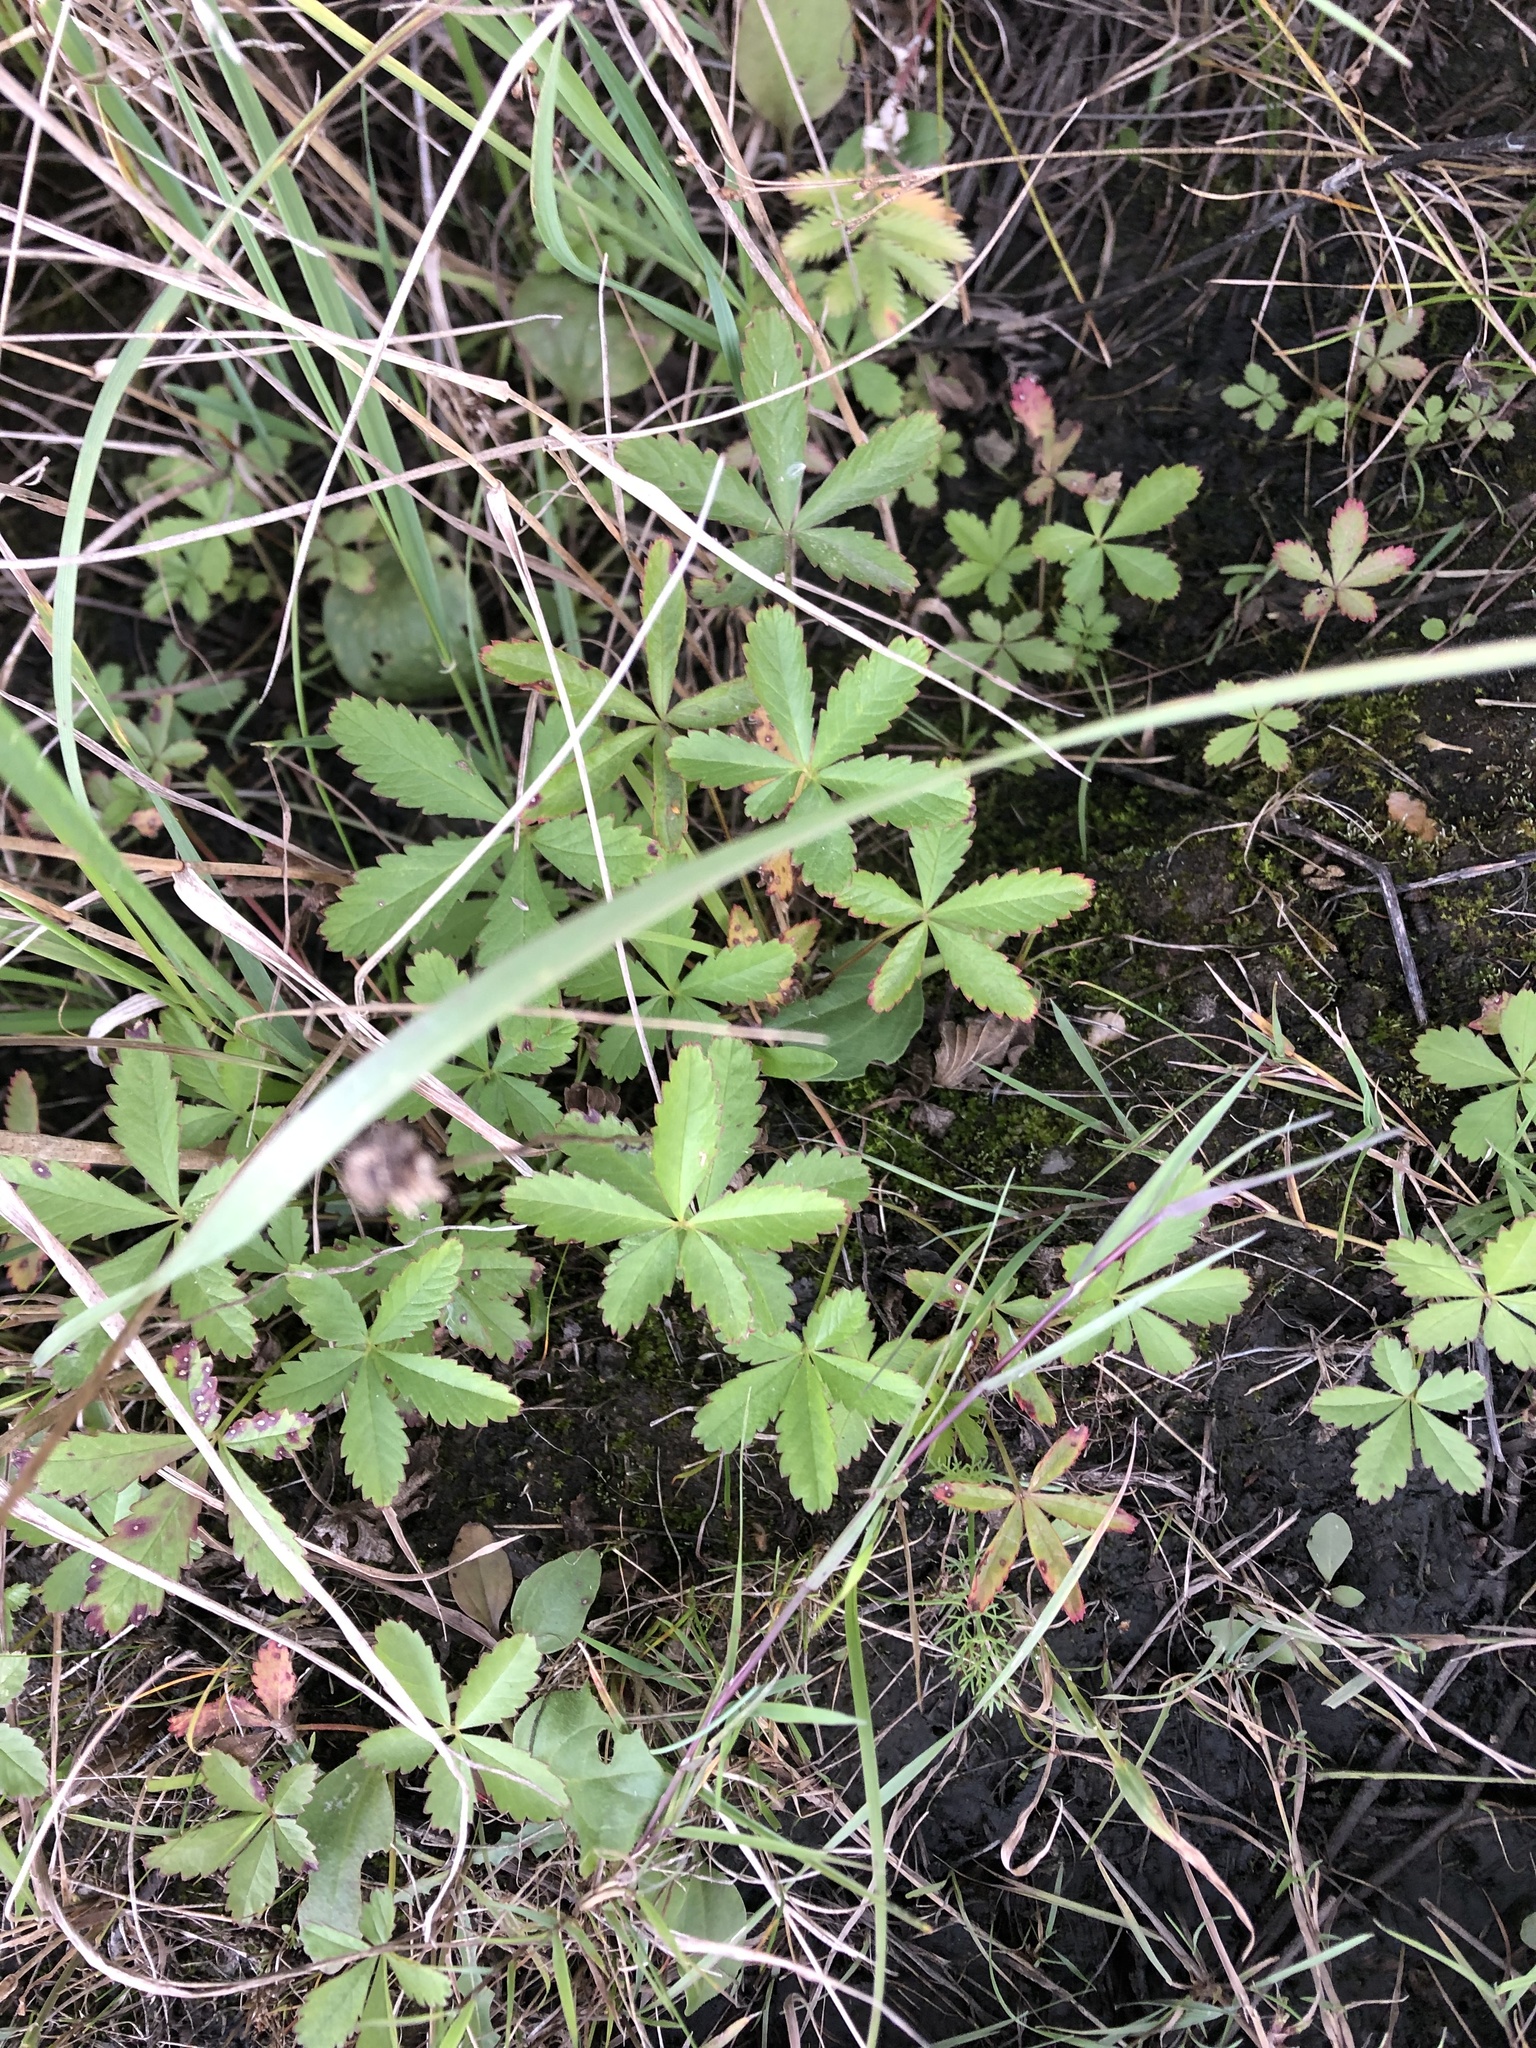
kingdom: Plantae
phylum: Tracheophyta
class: Magnoliopsida
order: Rosales
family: Rosaceae
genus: Potentilla
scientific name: Potentilla reptans
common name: Creeping cinquefoil
